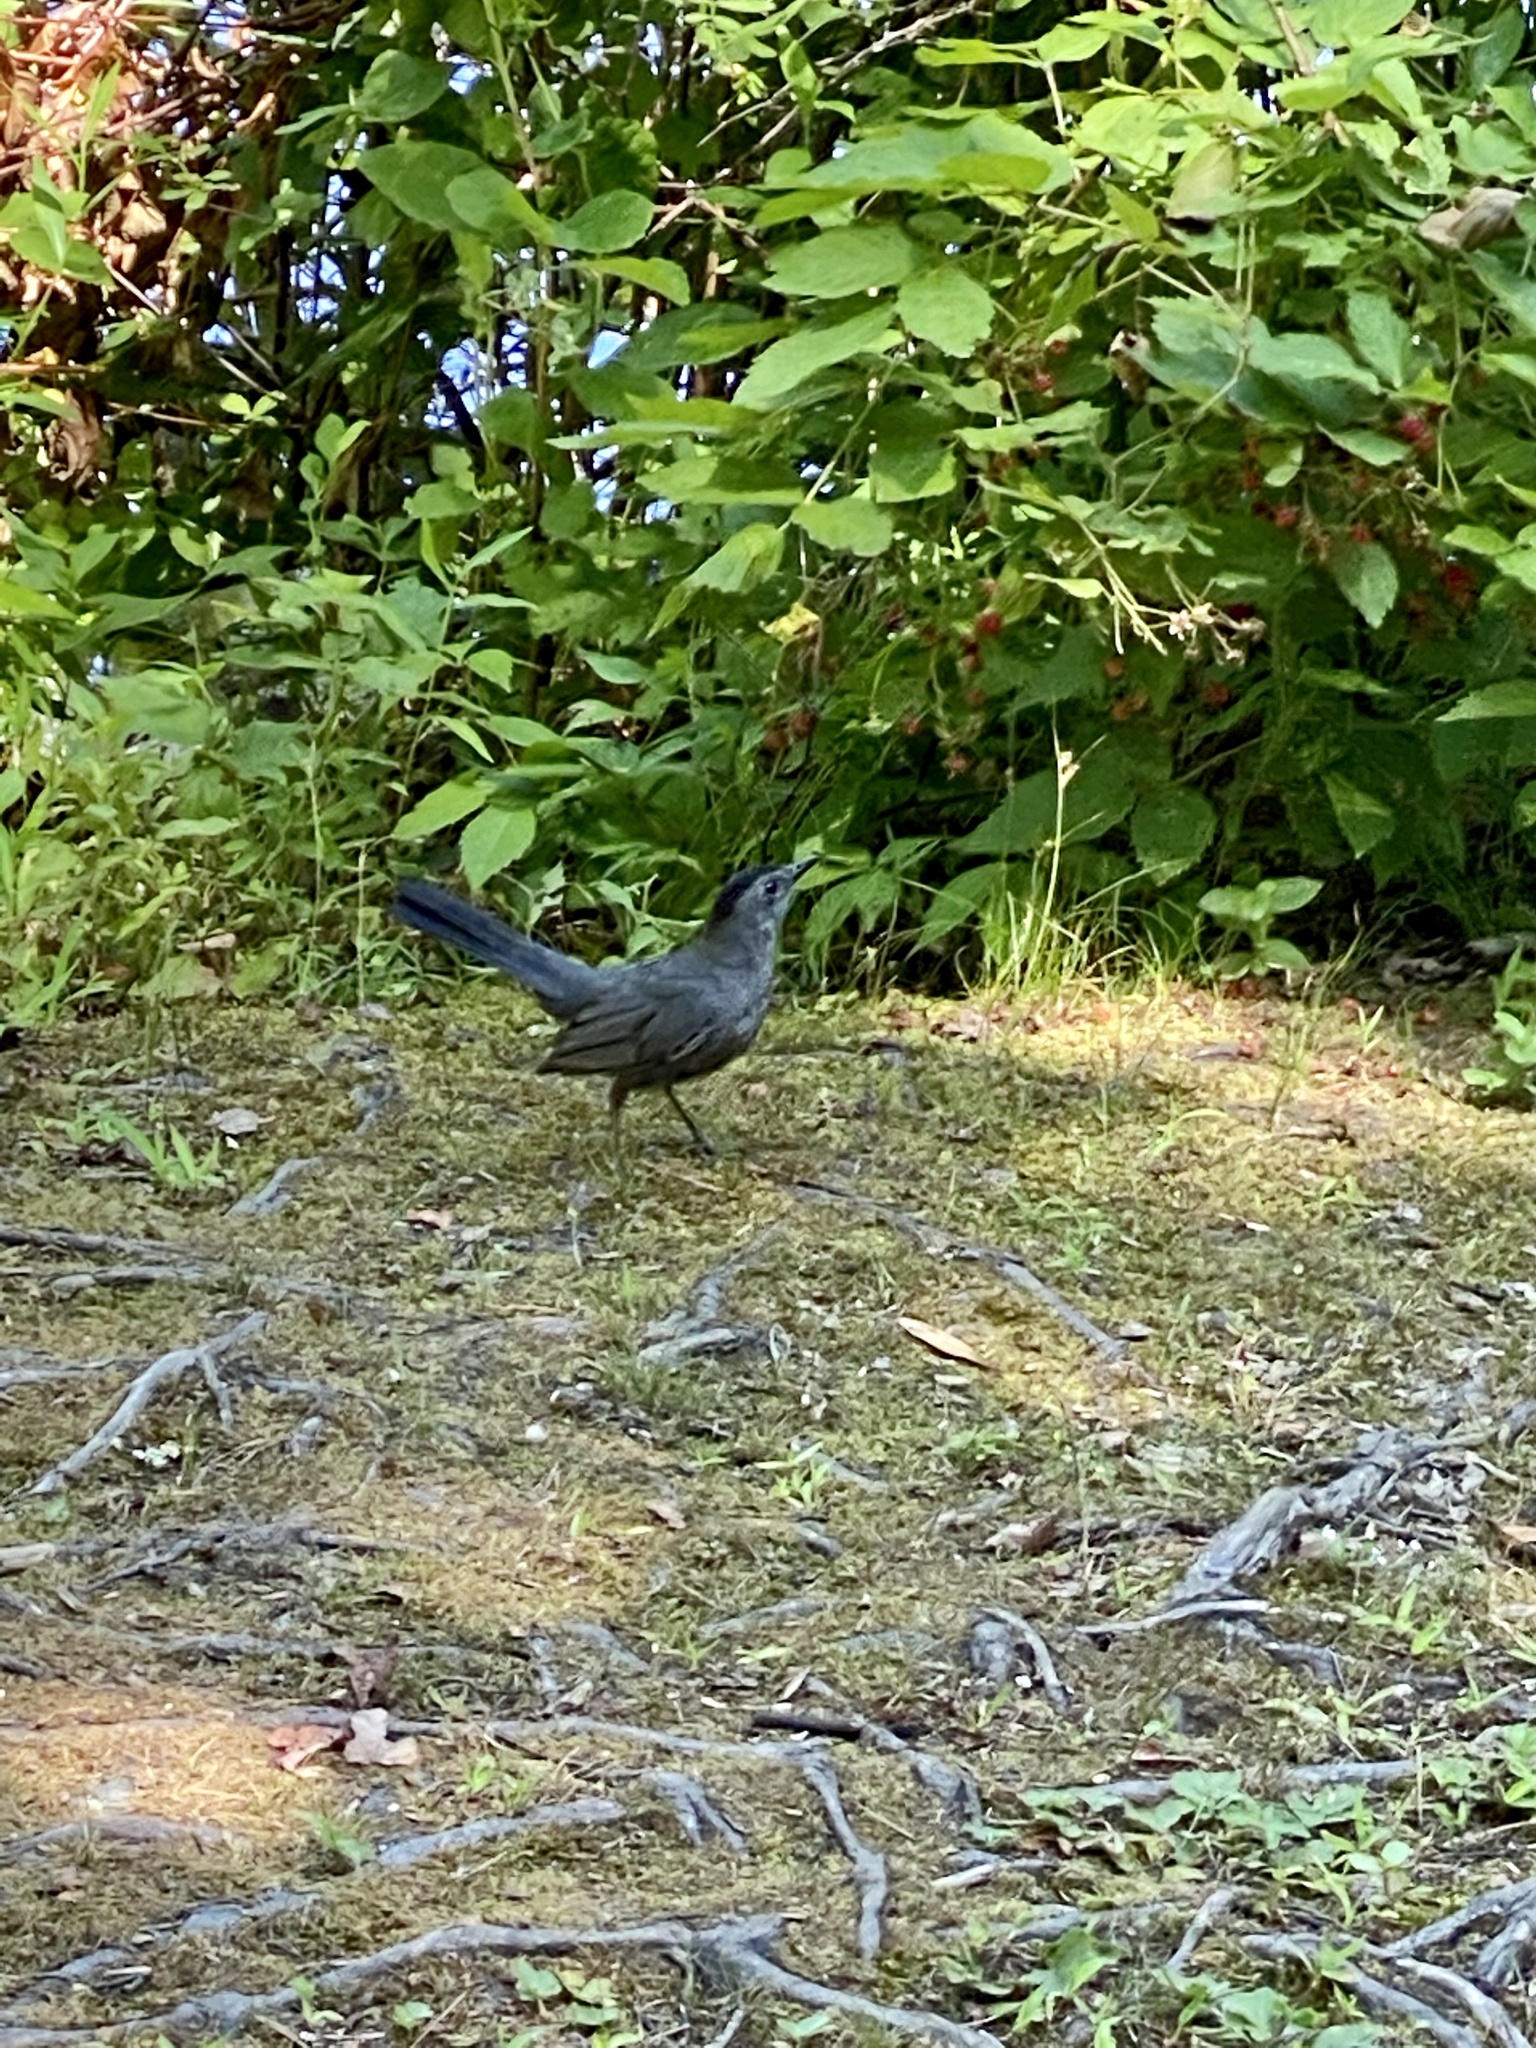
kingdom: Animalia
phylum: Chordata
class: Aves
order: Passeriformes
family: Mimidae
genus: Dumetella
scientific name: Dumetella carolinensis
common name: Gray catbird
